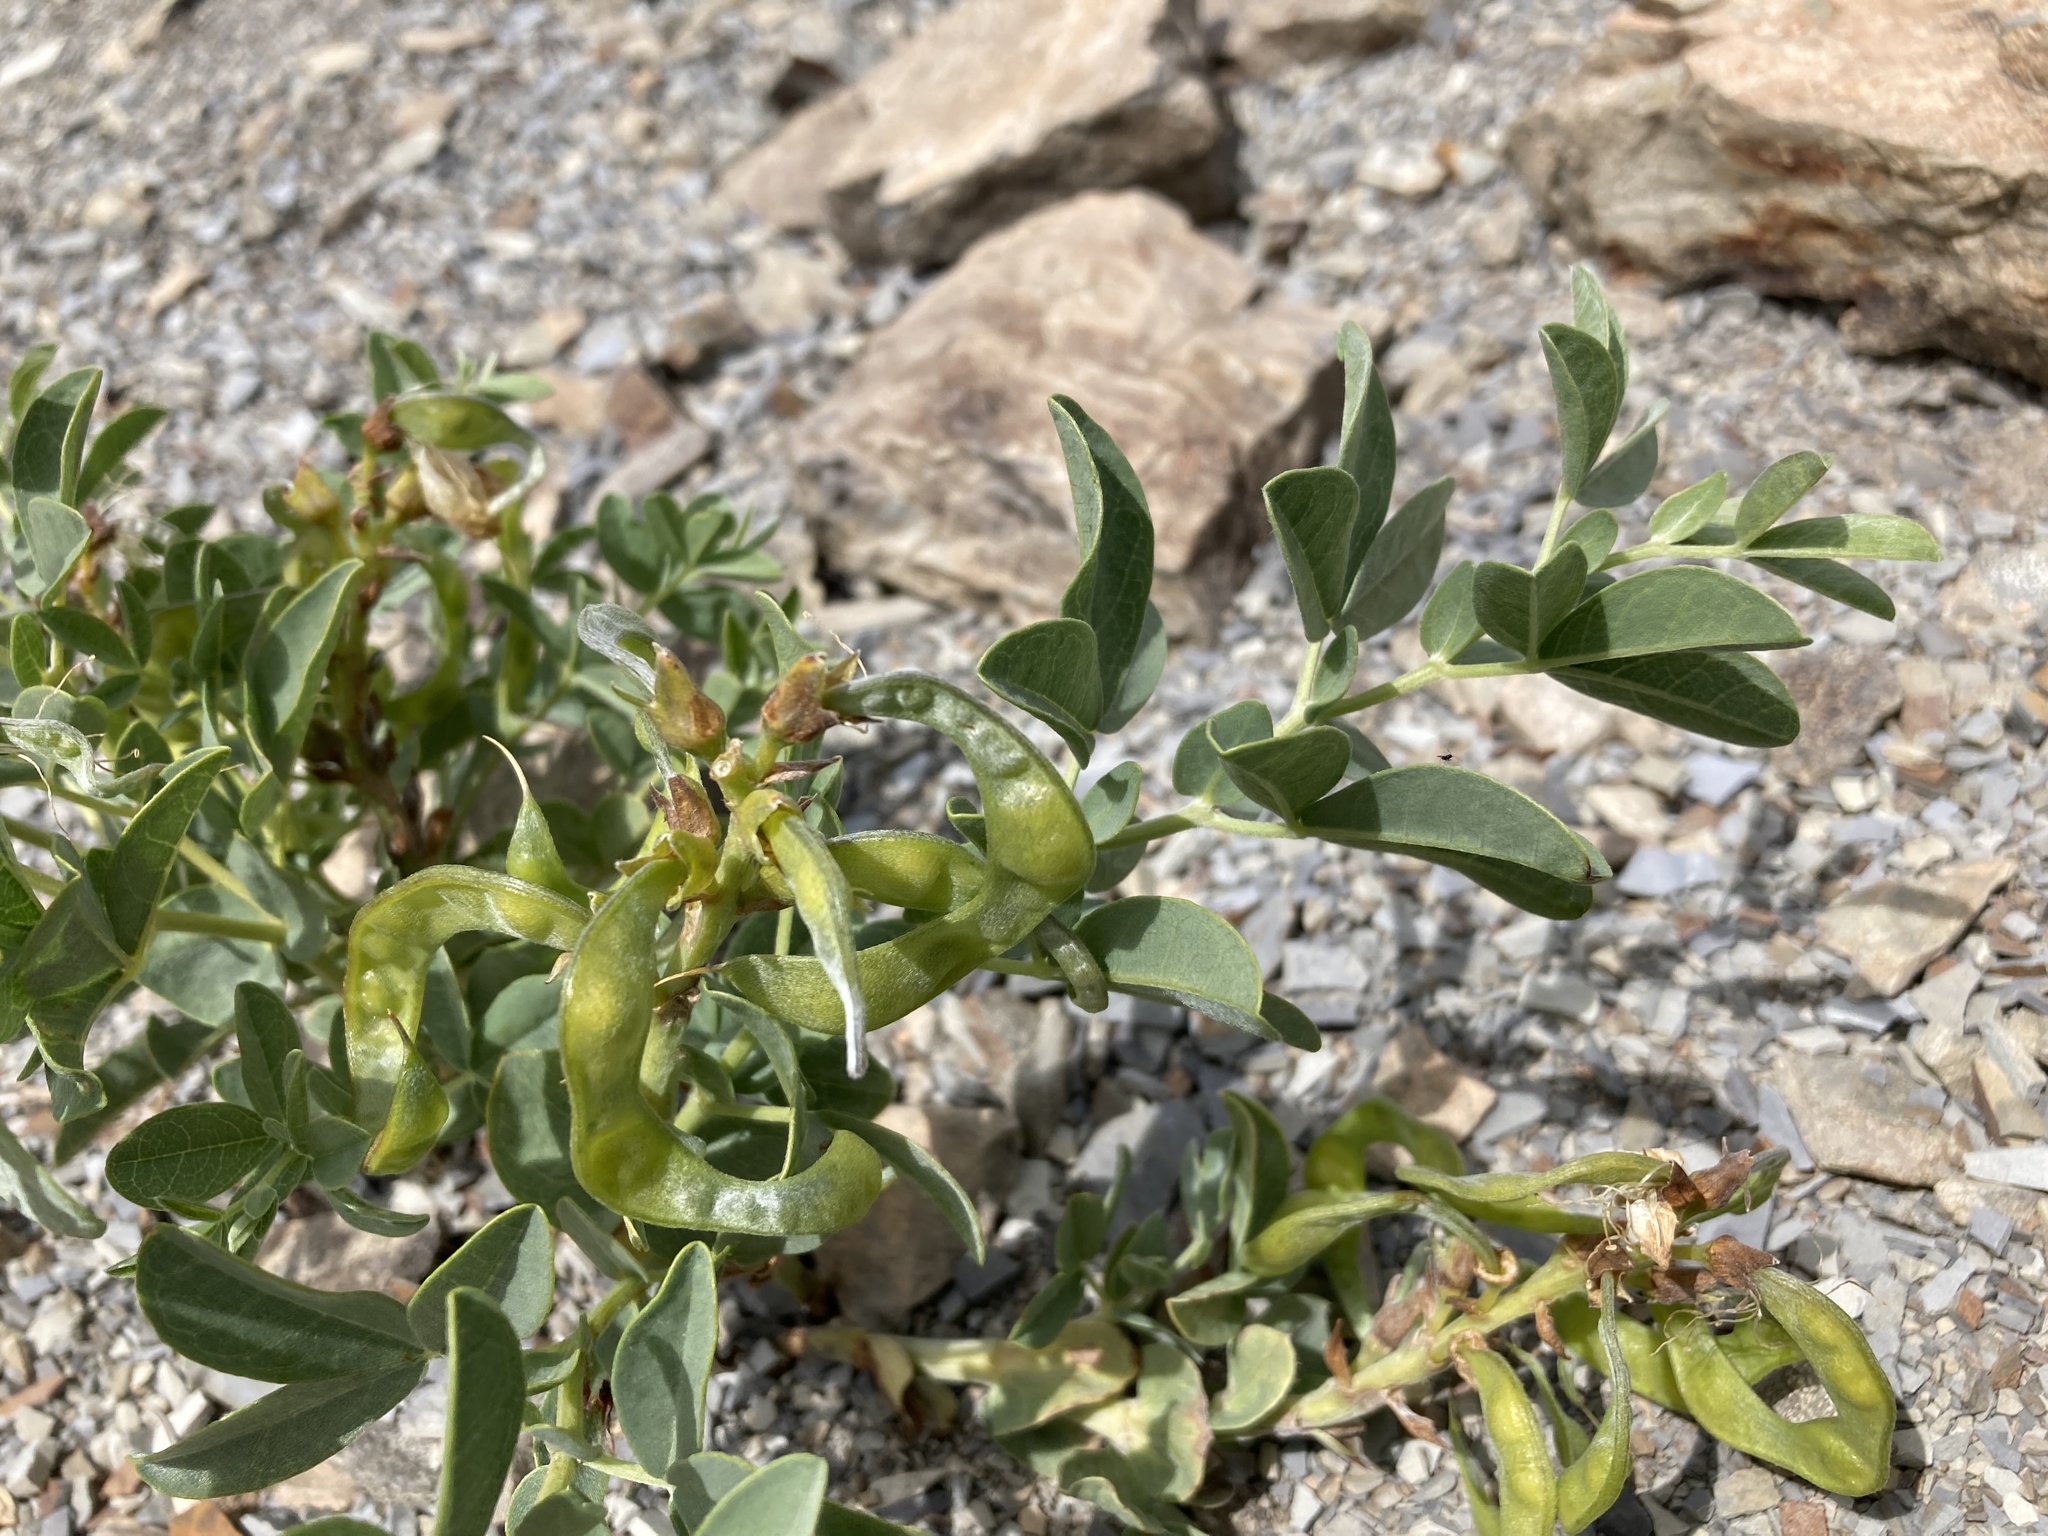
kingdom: Plantae
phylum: Tracheophyta
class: Magnoliopsida
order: Fabales
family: Fabaceae
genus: Thermopsis
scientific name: Thermopsis rhombifolia
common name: Circle-pod-pea
